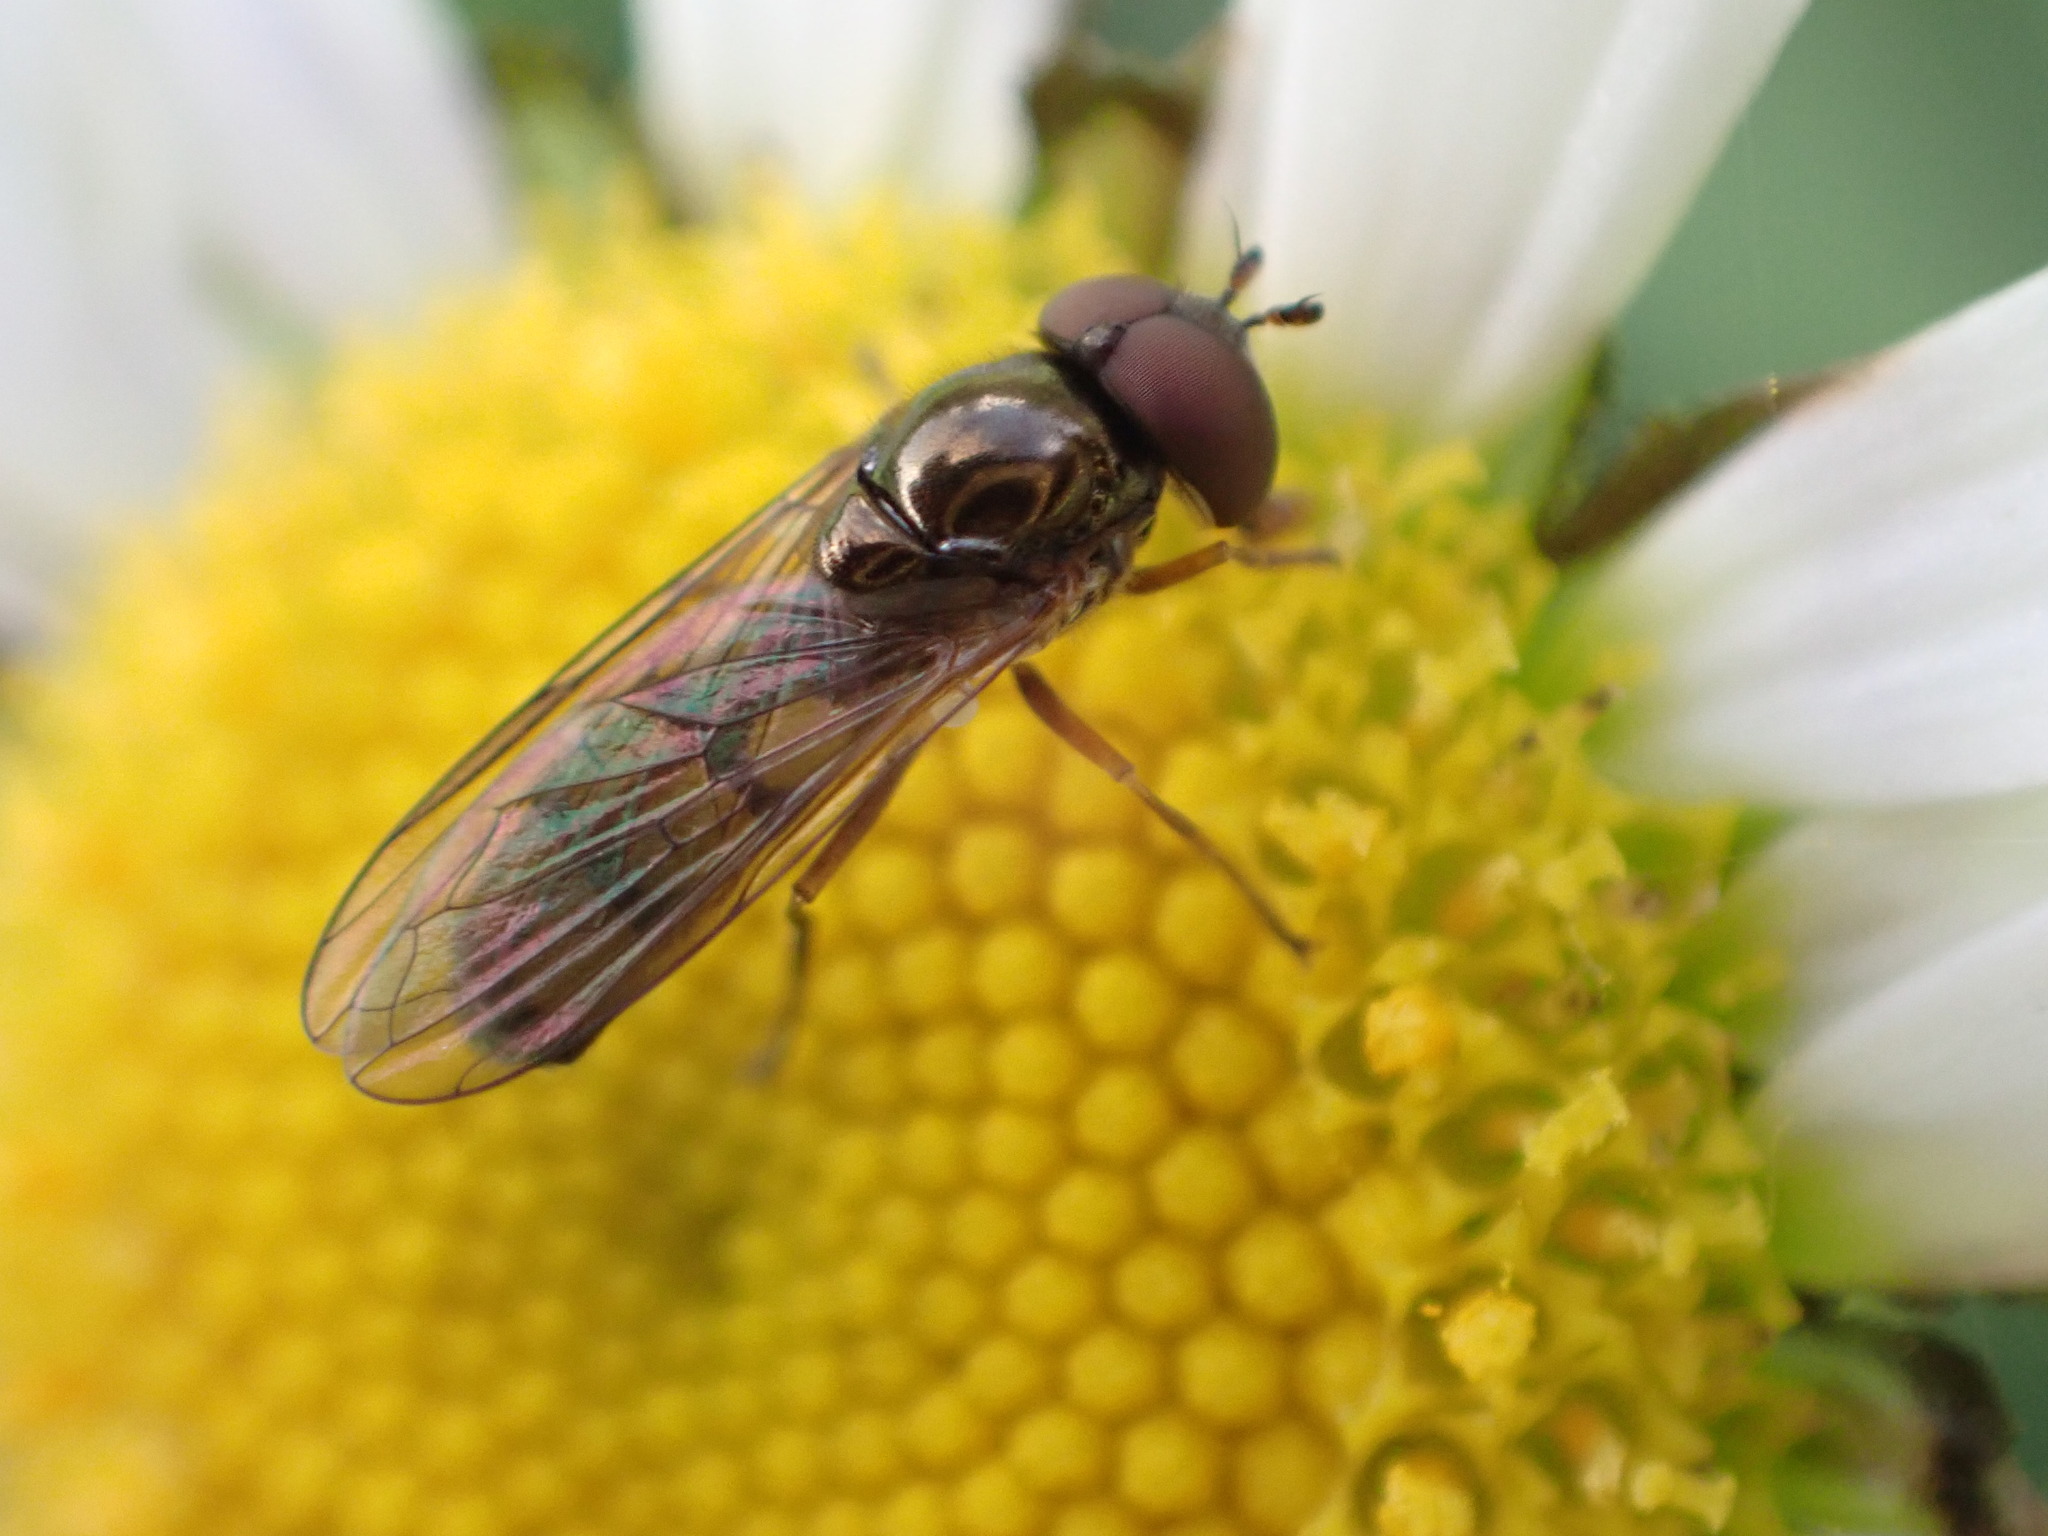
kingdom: Animalia
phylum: Arthropoda
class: Insecta
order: Diptera
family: Syrphidae
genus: Melanostoma
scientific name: Melanostoma fasciatum
